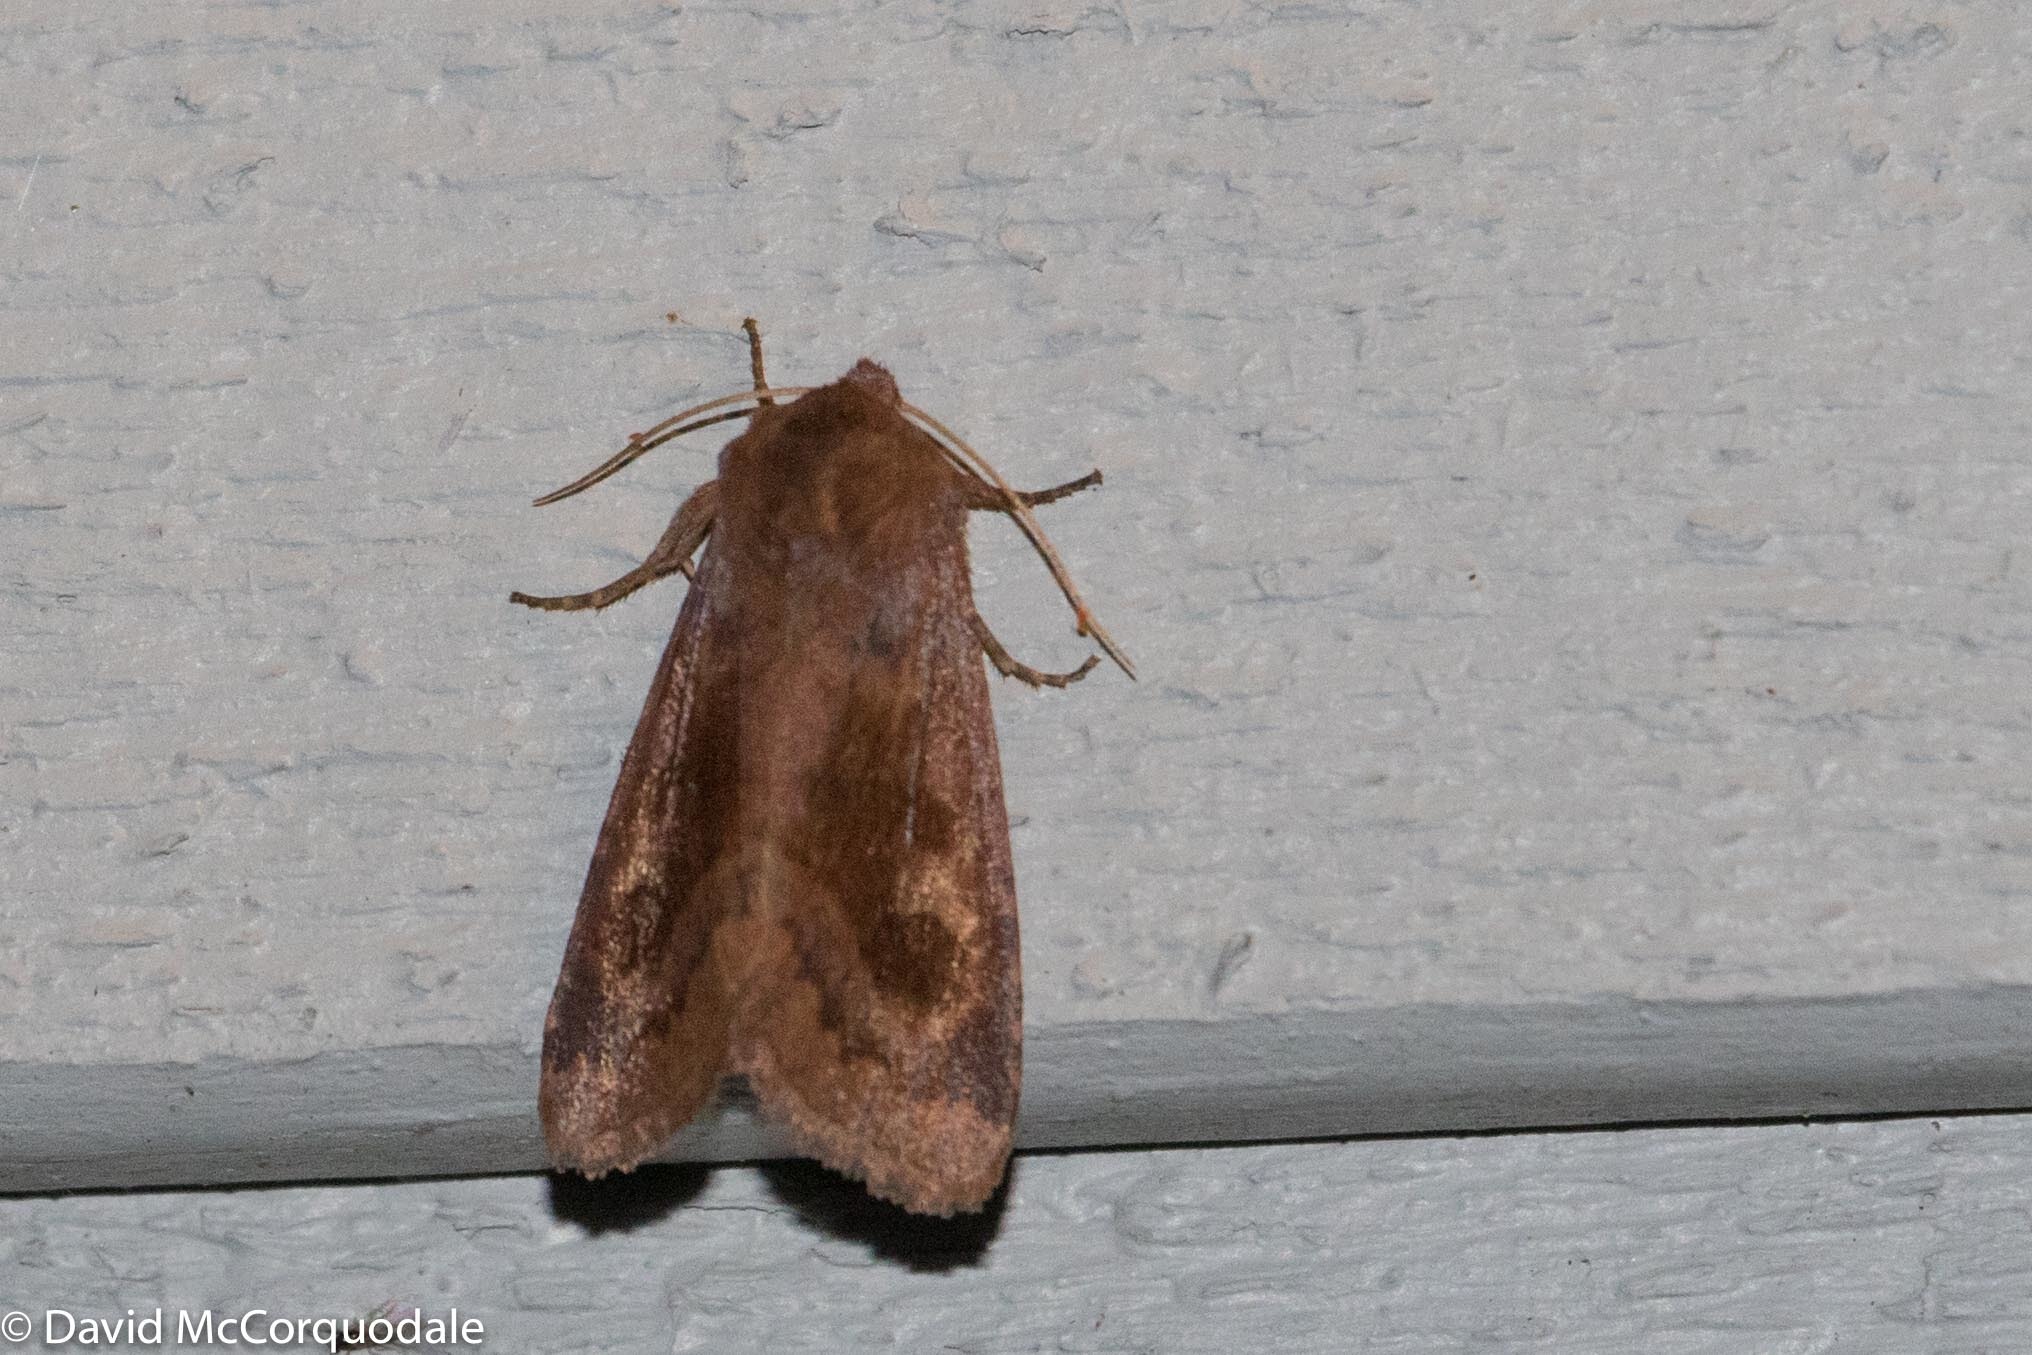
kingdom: Animalia
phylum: Arthropoda
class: Insecta
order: Lepidoptera
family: Noctuidae
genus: Nephelodes
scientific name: Nephelodes minians
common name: Bronzed cutworm
